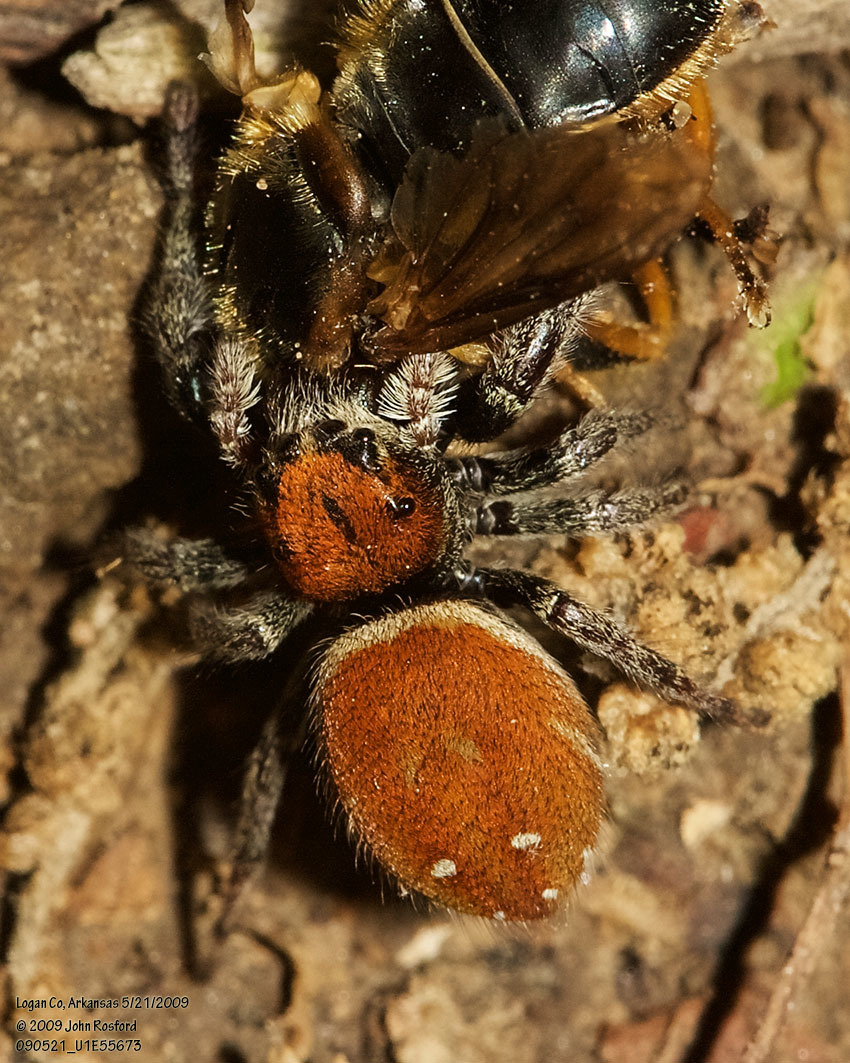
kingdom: Animalia
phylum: Arthropoda
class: Arachnida
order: Araneae
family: Salticidae
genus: Phidippus
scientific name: Phidippus whitmani
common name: Whitman's jumping spider
